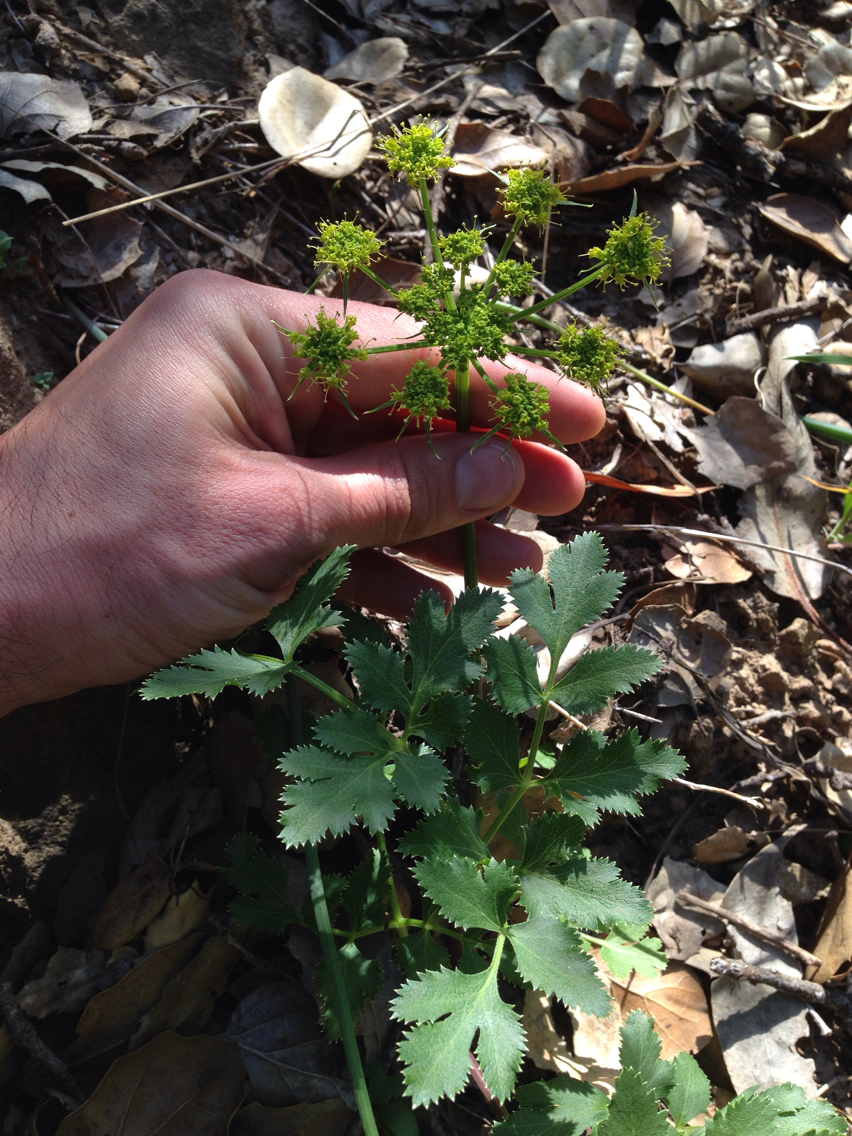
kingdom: Plantae
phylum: Tracheophyta
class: Magnoliopsida
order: Apiales
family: Apiaceae
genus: Tauschia
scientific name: Tauschia hartwegii
